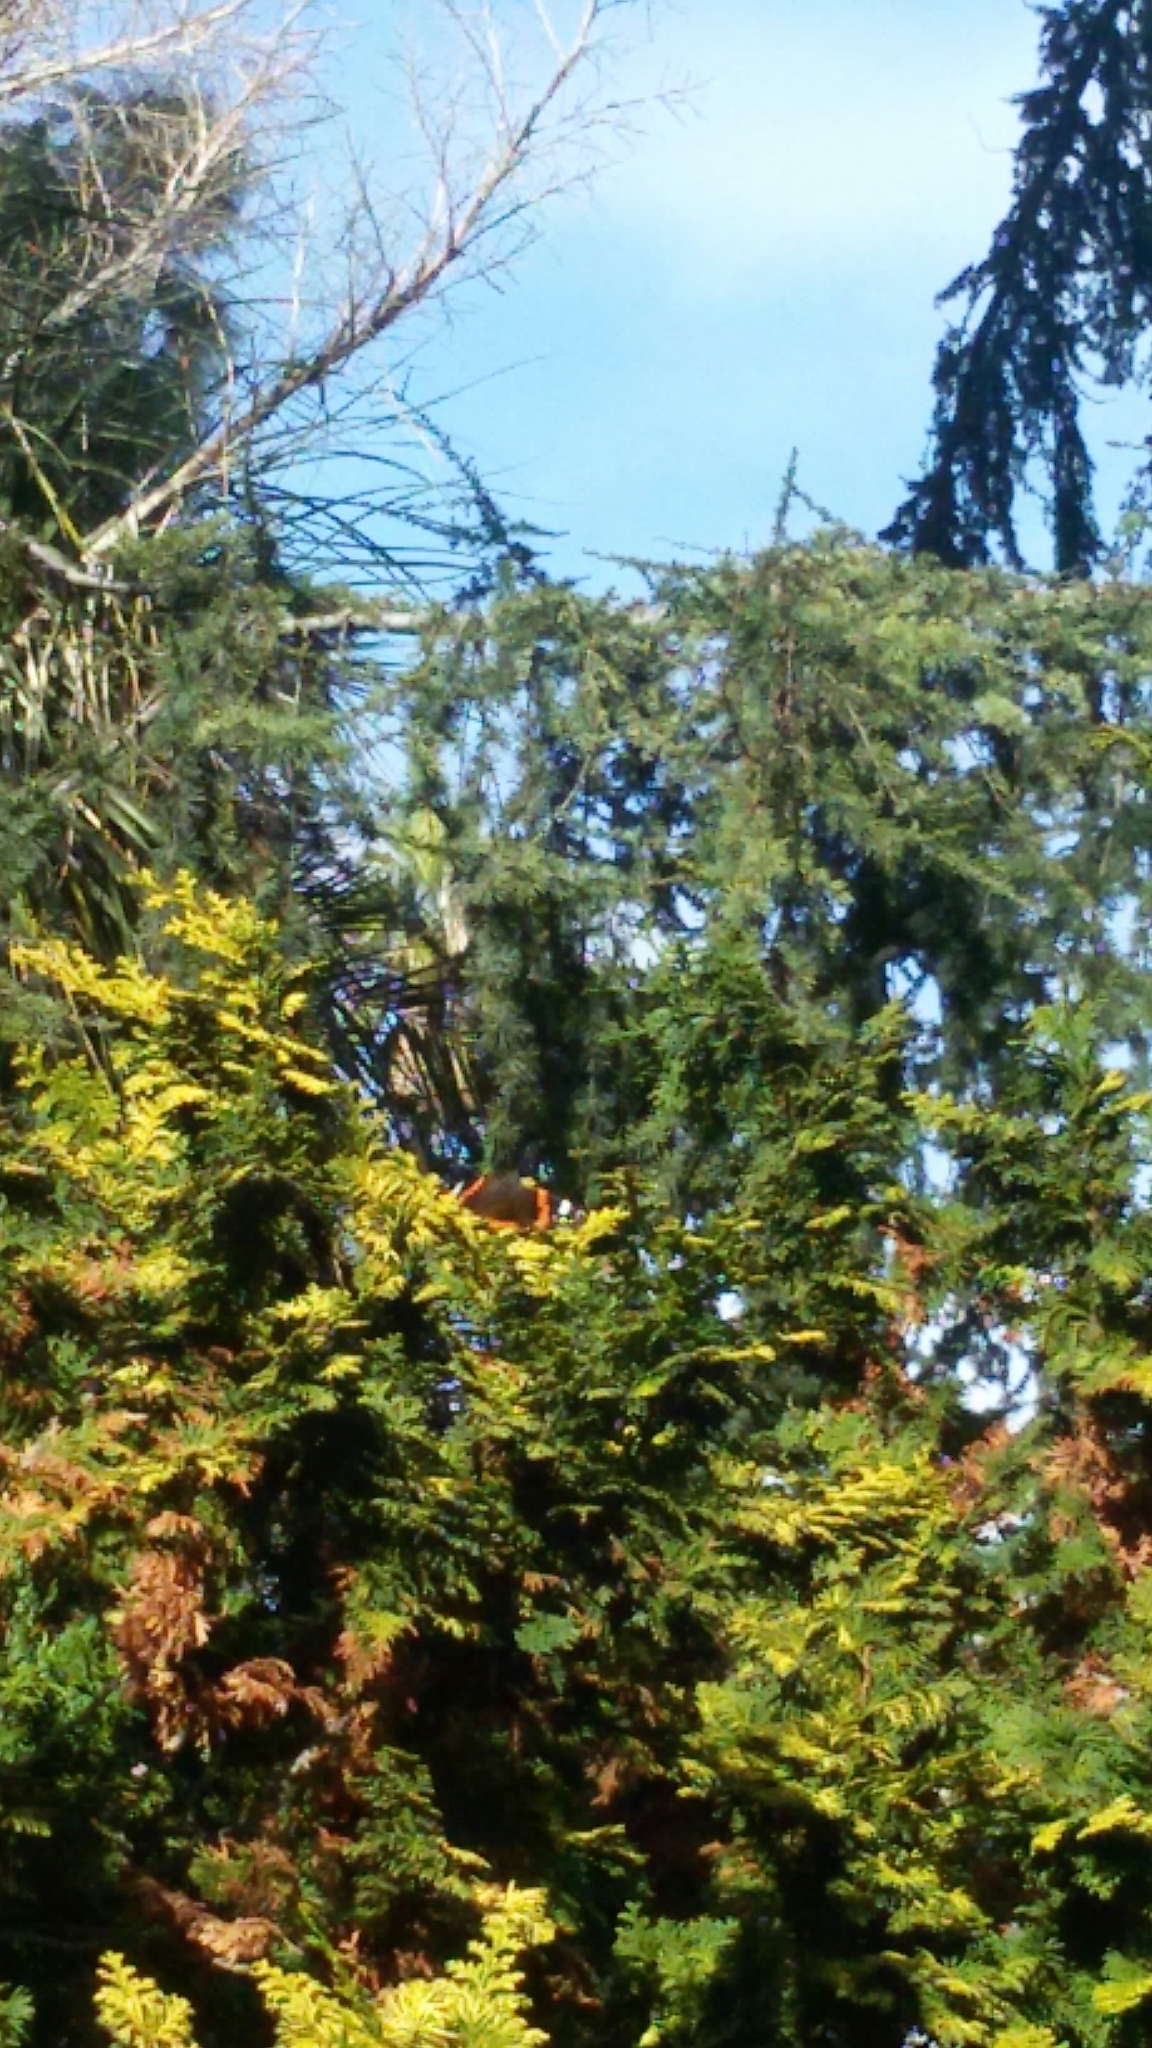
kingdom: Animalia
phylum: Arthropoda
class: Insecta
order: Lepidoptera
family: Nymphalidae
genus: Vanessa
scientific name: Vanessa atalanta
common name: Red admiral
